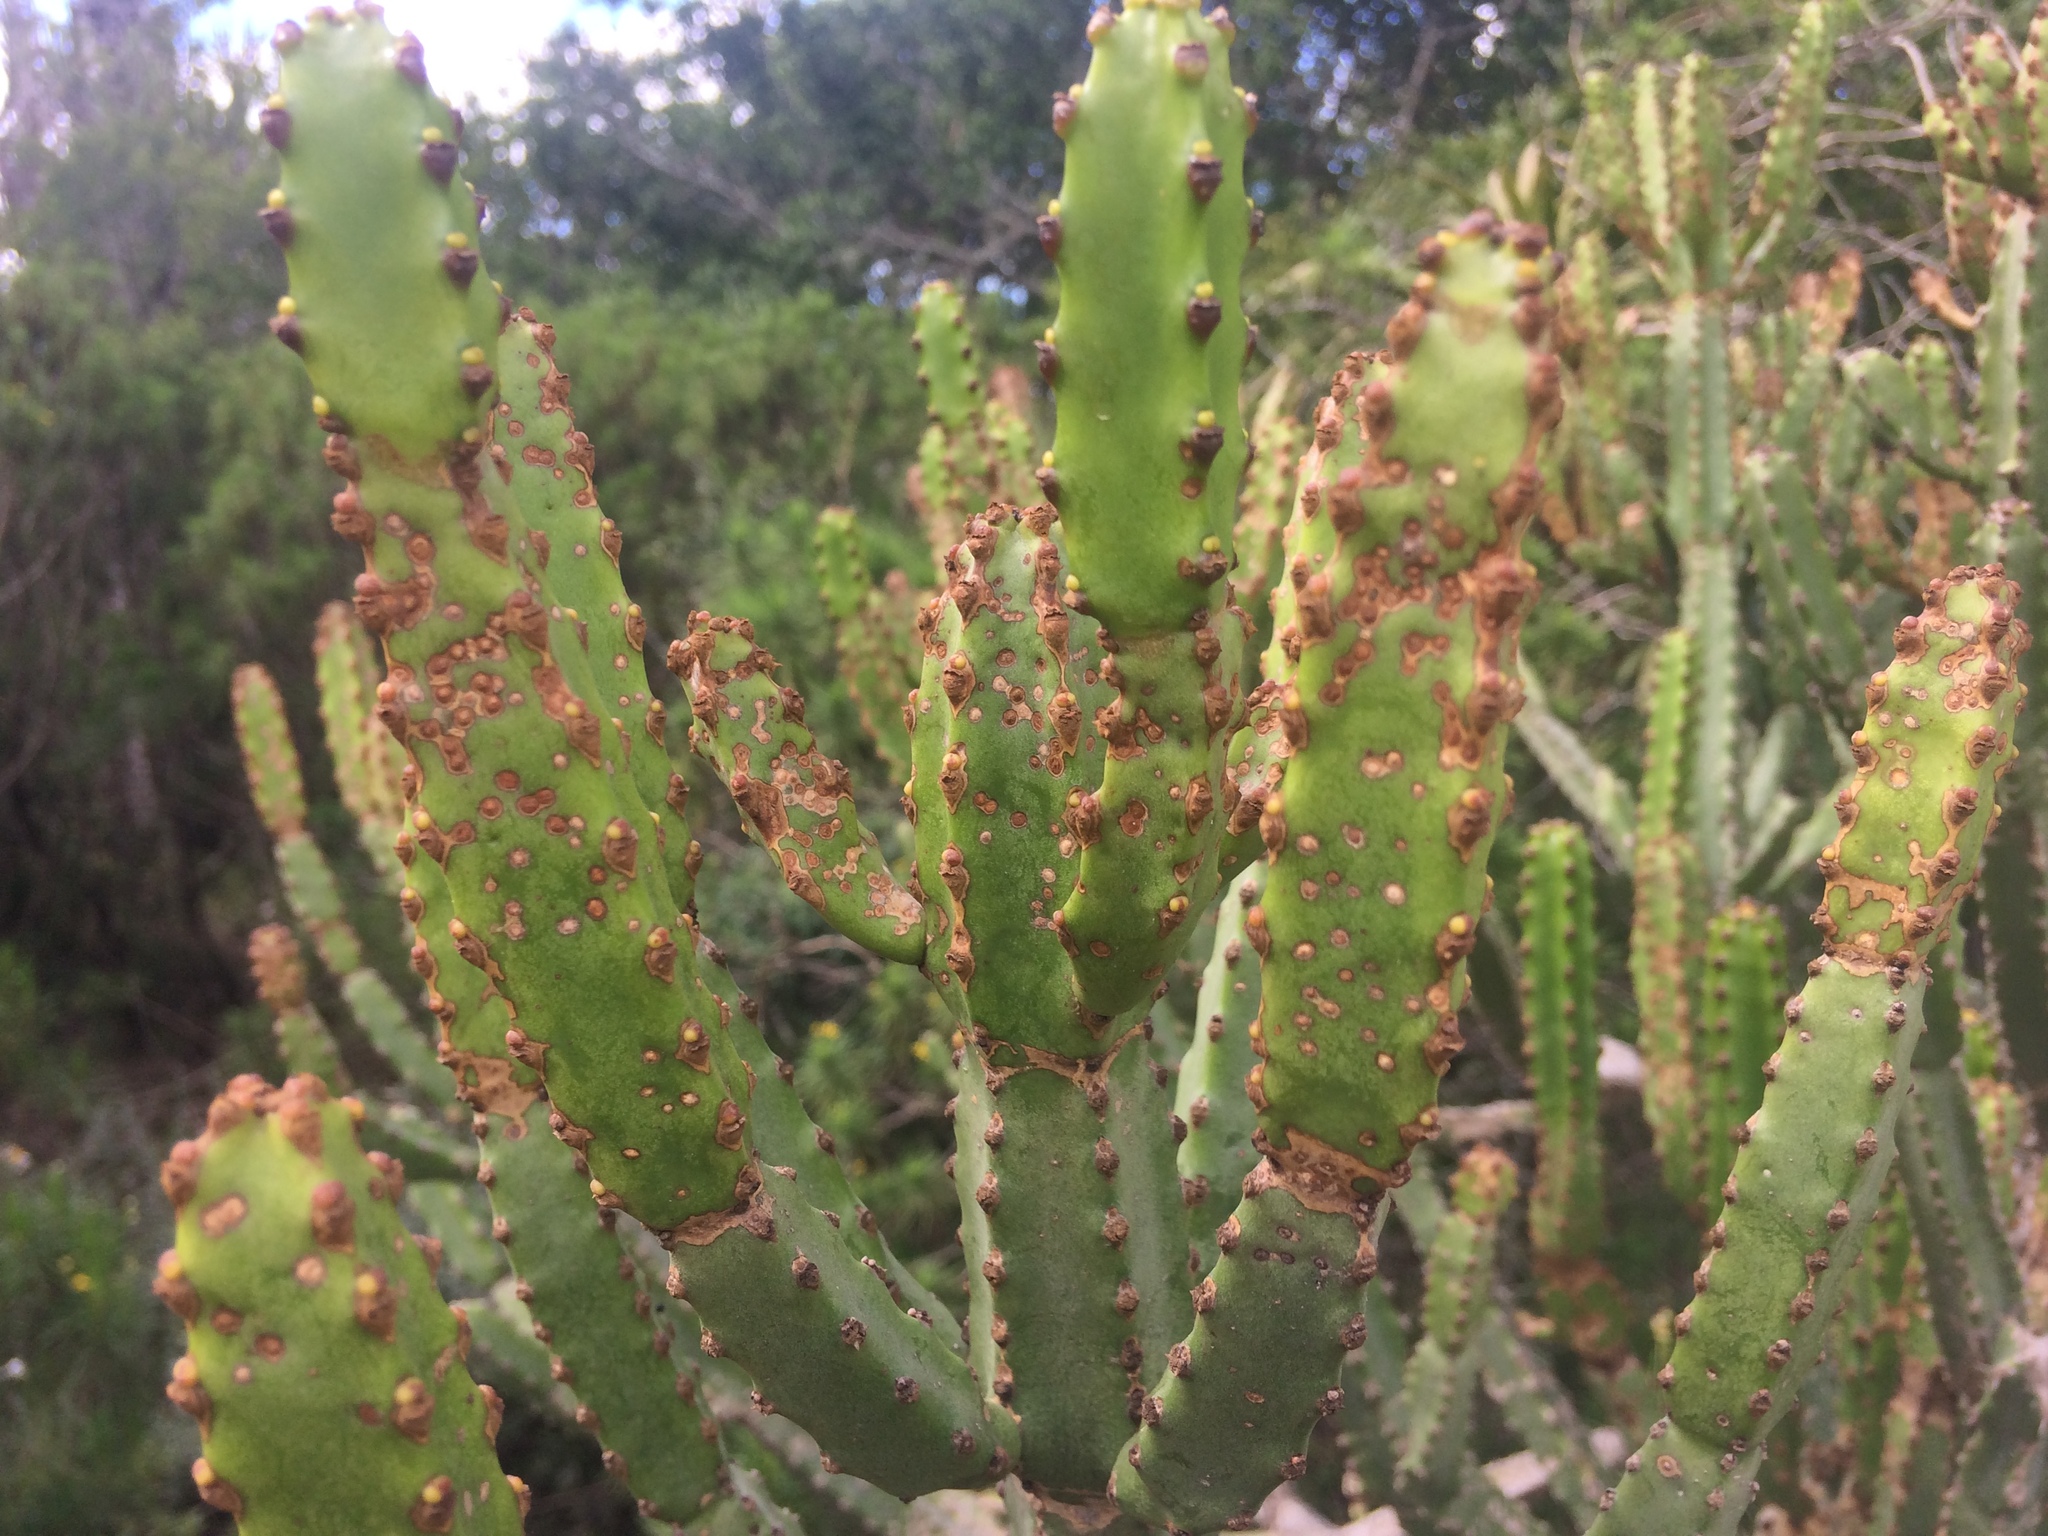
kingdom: Plantae
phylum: Tracheophyta
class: Magnoliopsida
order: Malpighiales
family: Euphorbiaceae
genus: Euphorbia
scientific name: Euphorbia tetragona
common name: Honey euphorbia
